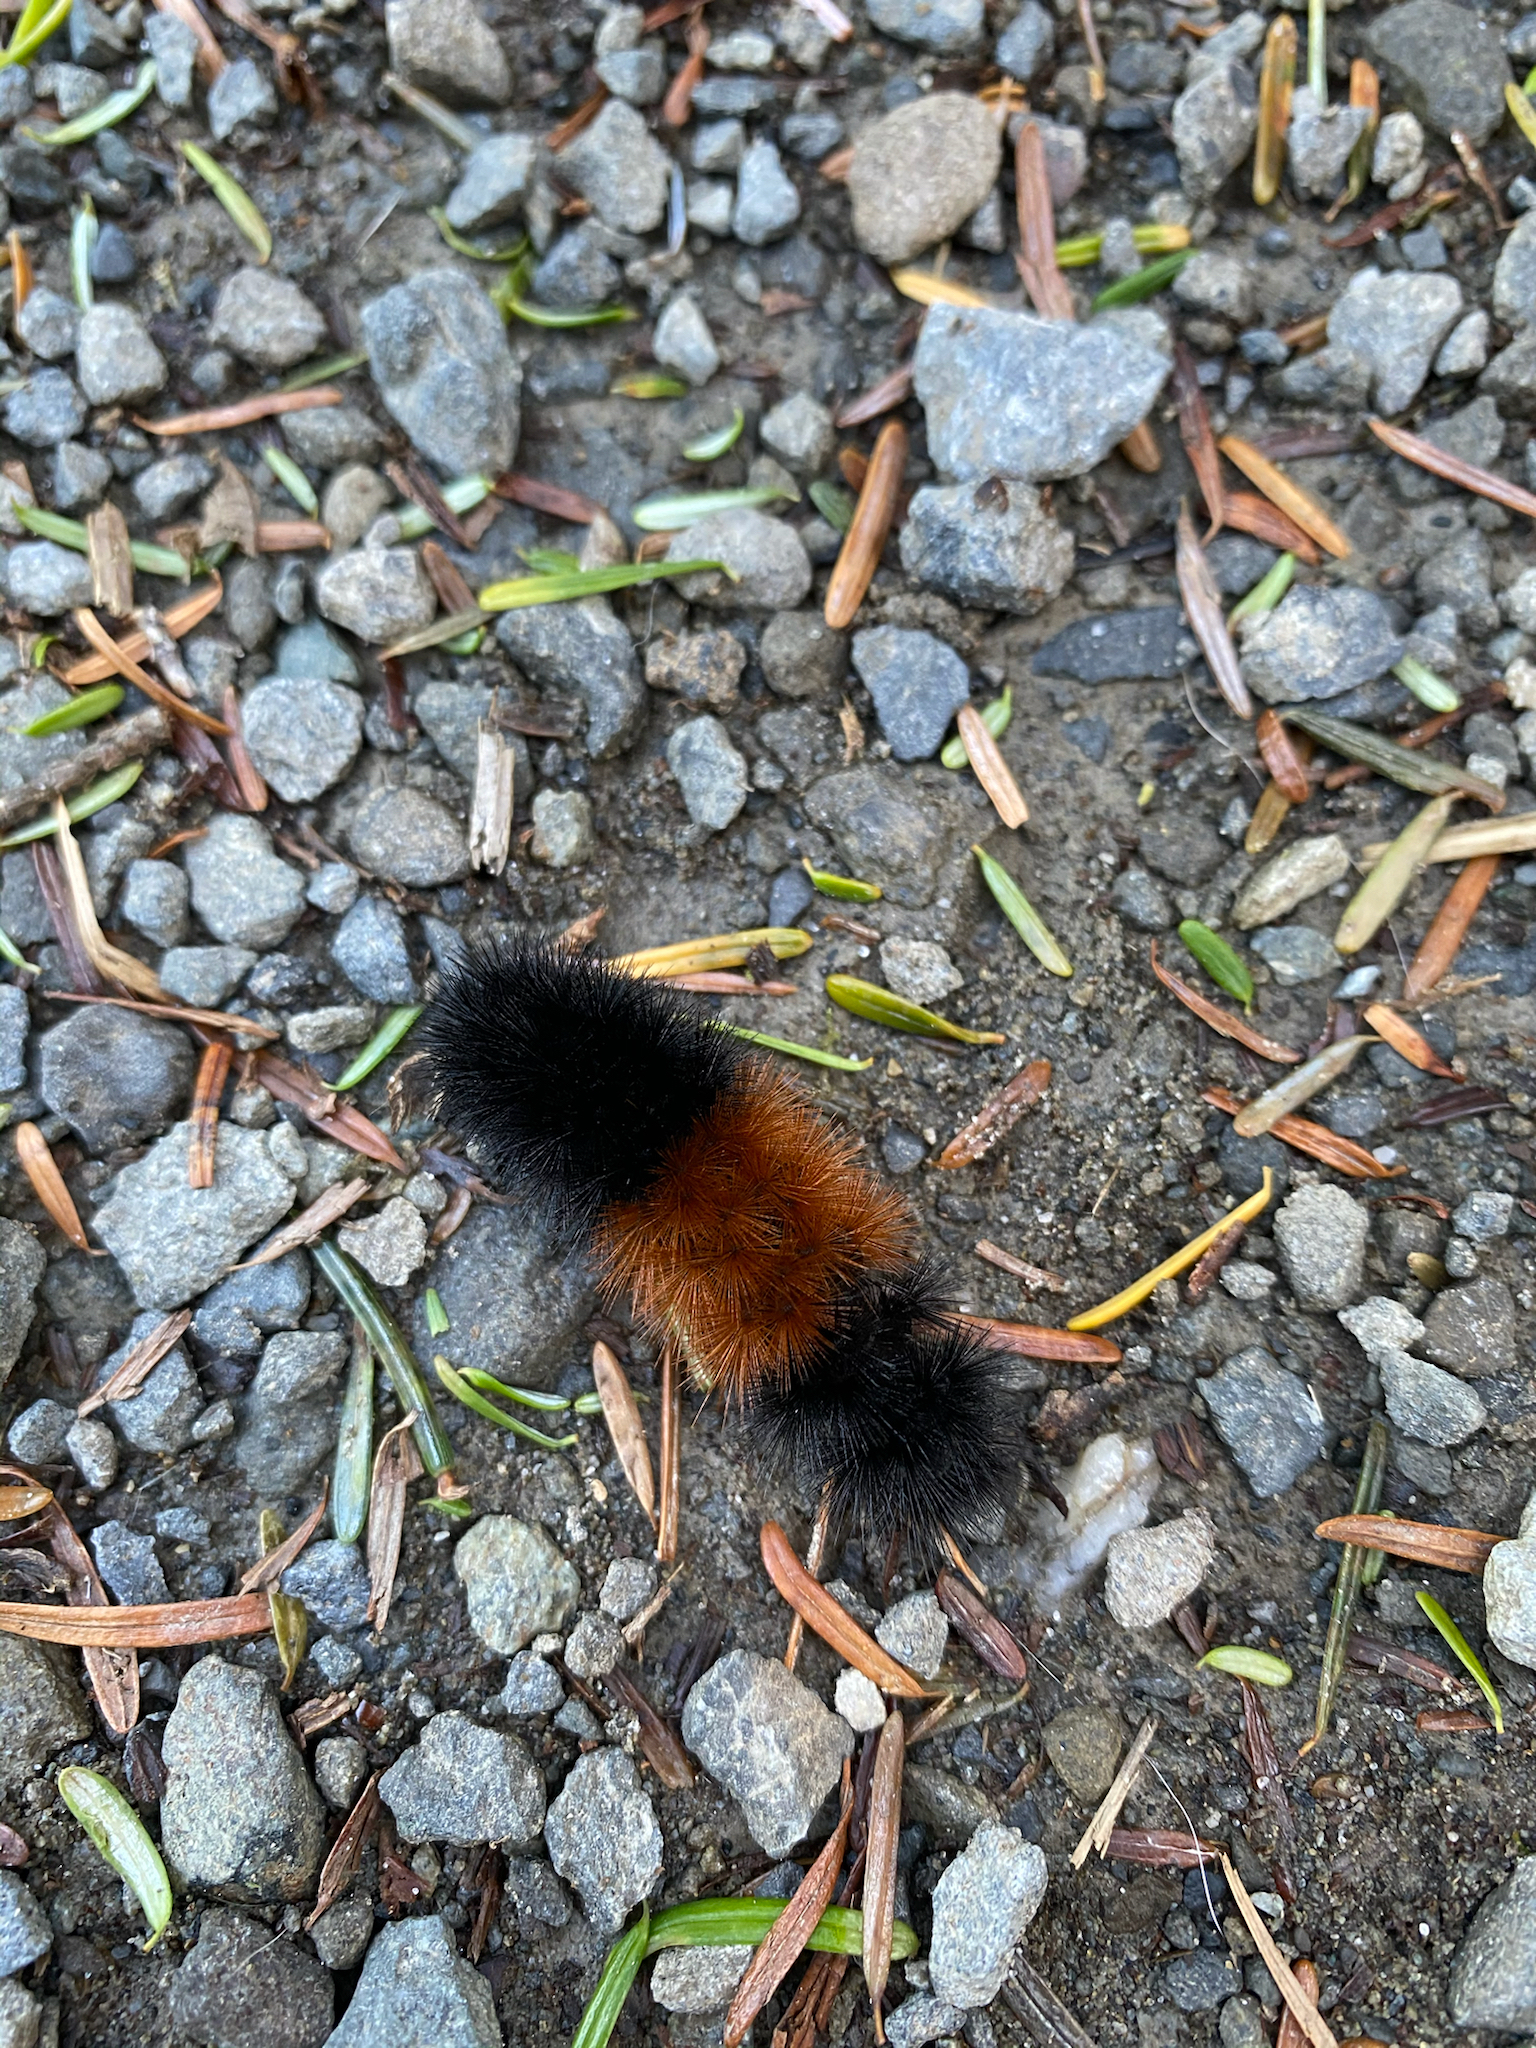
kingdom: Animalia
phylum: Arthropoda
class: Insecta
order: Lepidoptera
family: Erebidae
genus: Pyrrharctia
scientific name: Pyrrharctia isabella
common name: Isabella tiger moth
